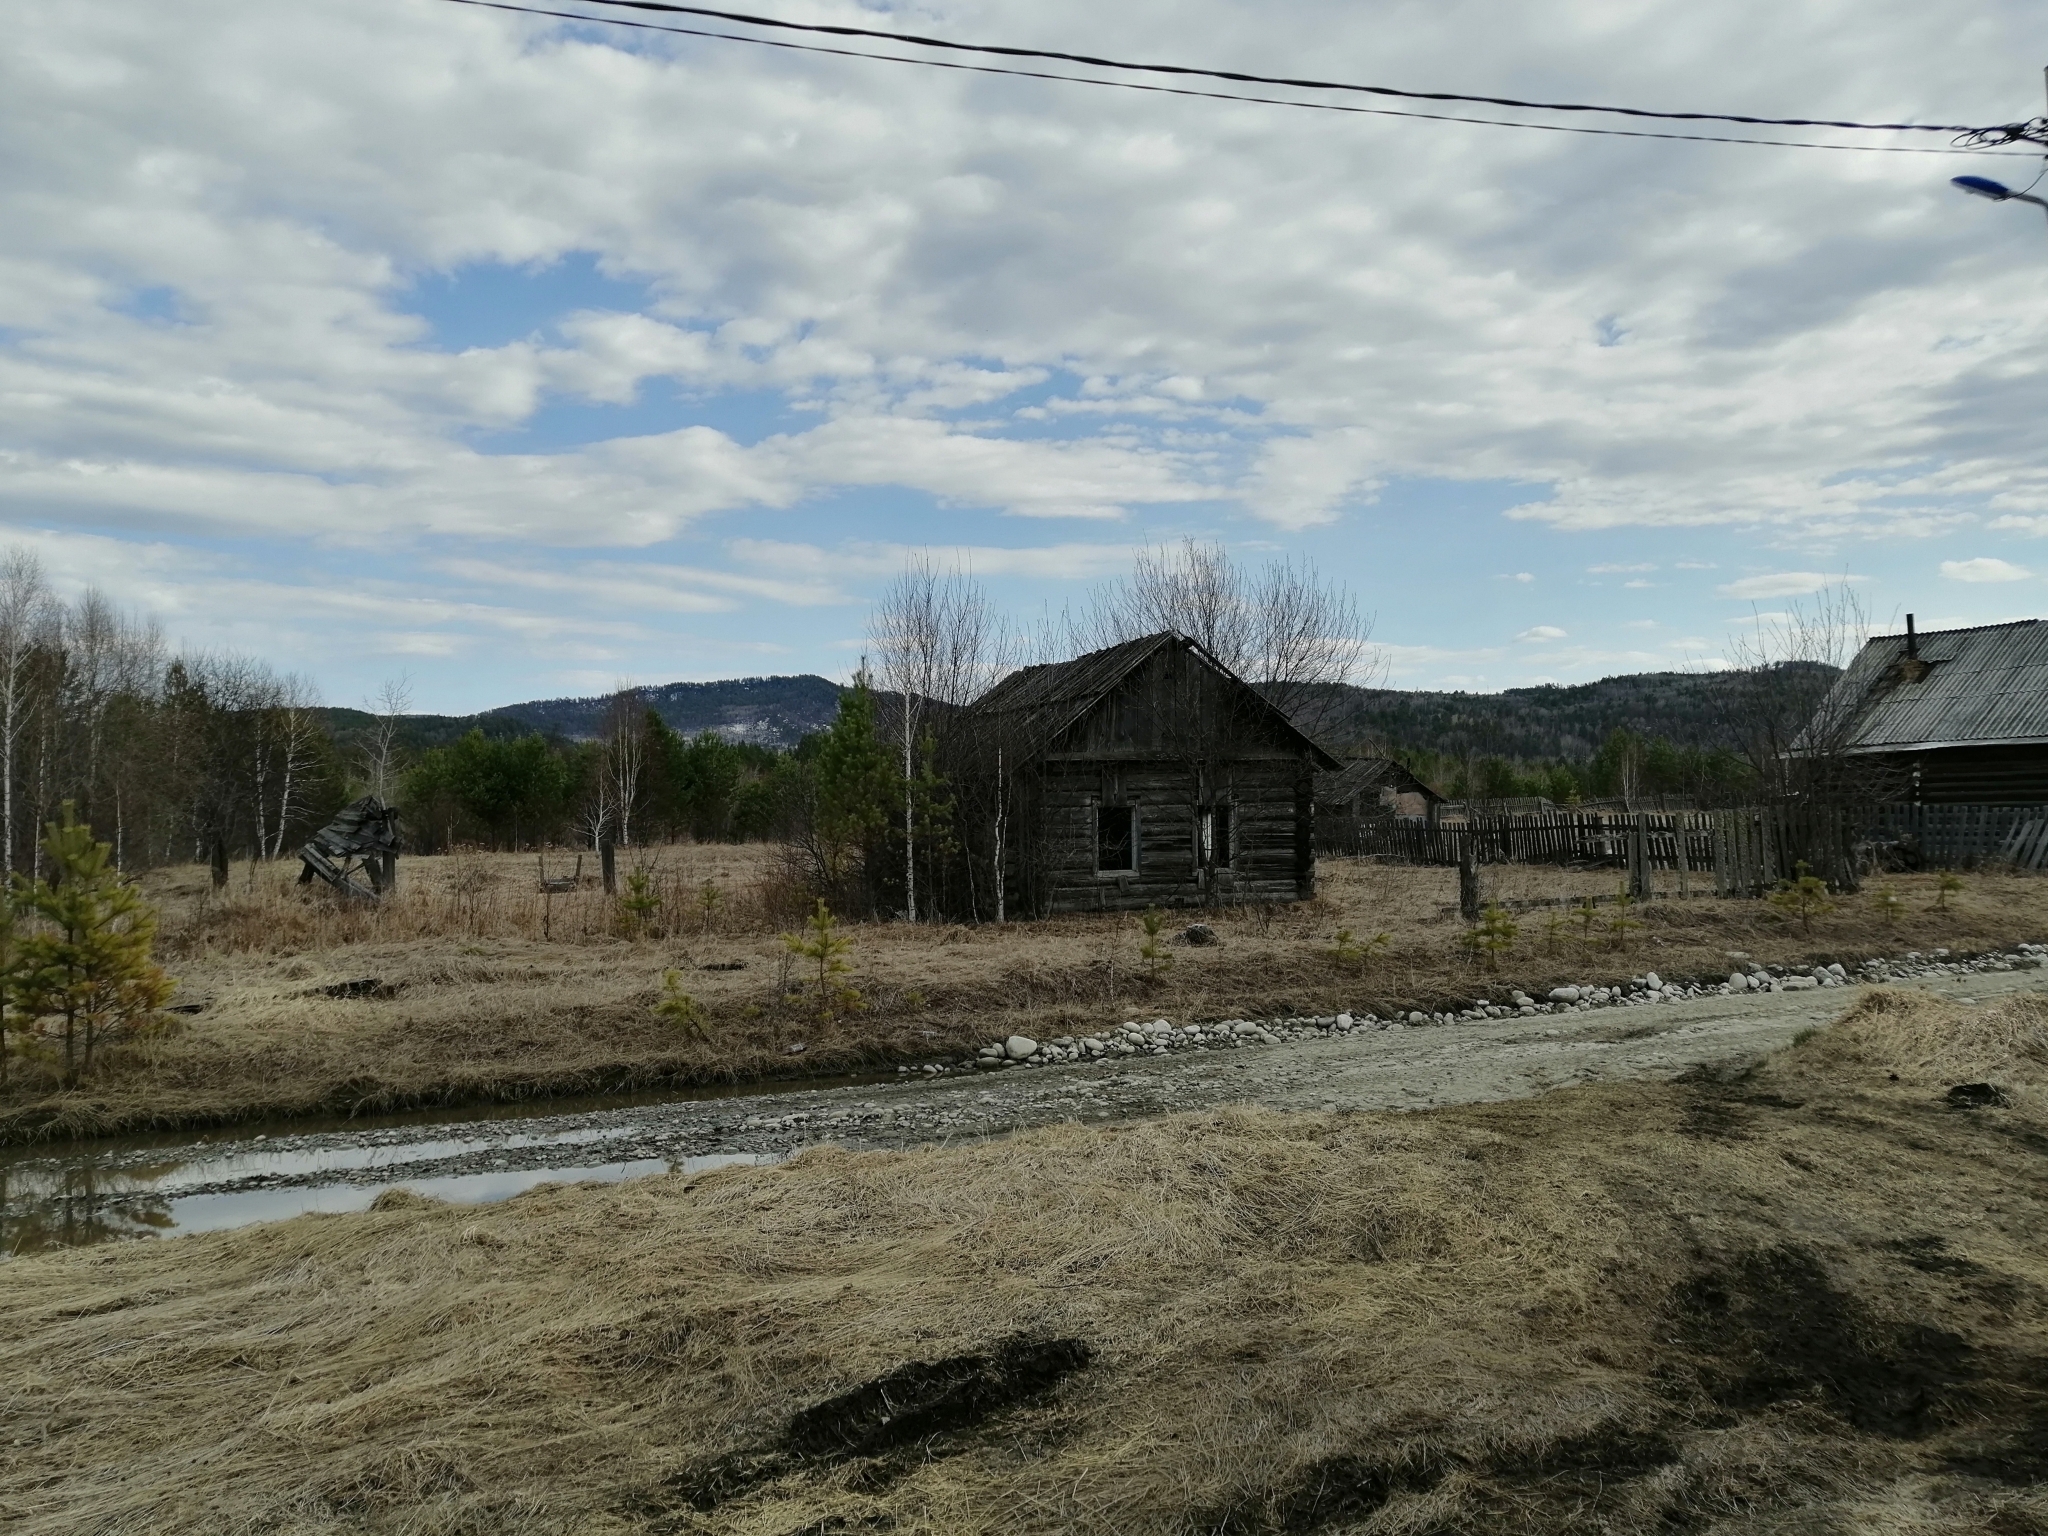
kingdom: Plantae
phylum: Tracheophyta
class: Pinopsida
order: Pinales
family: Pinaceae
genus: Pinus
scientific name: Pinus sylvestris
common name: Scots pine
